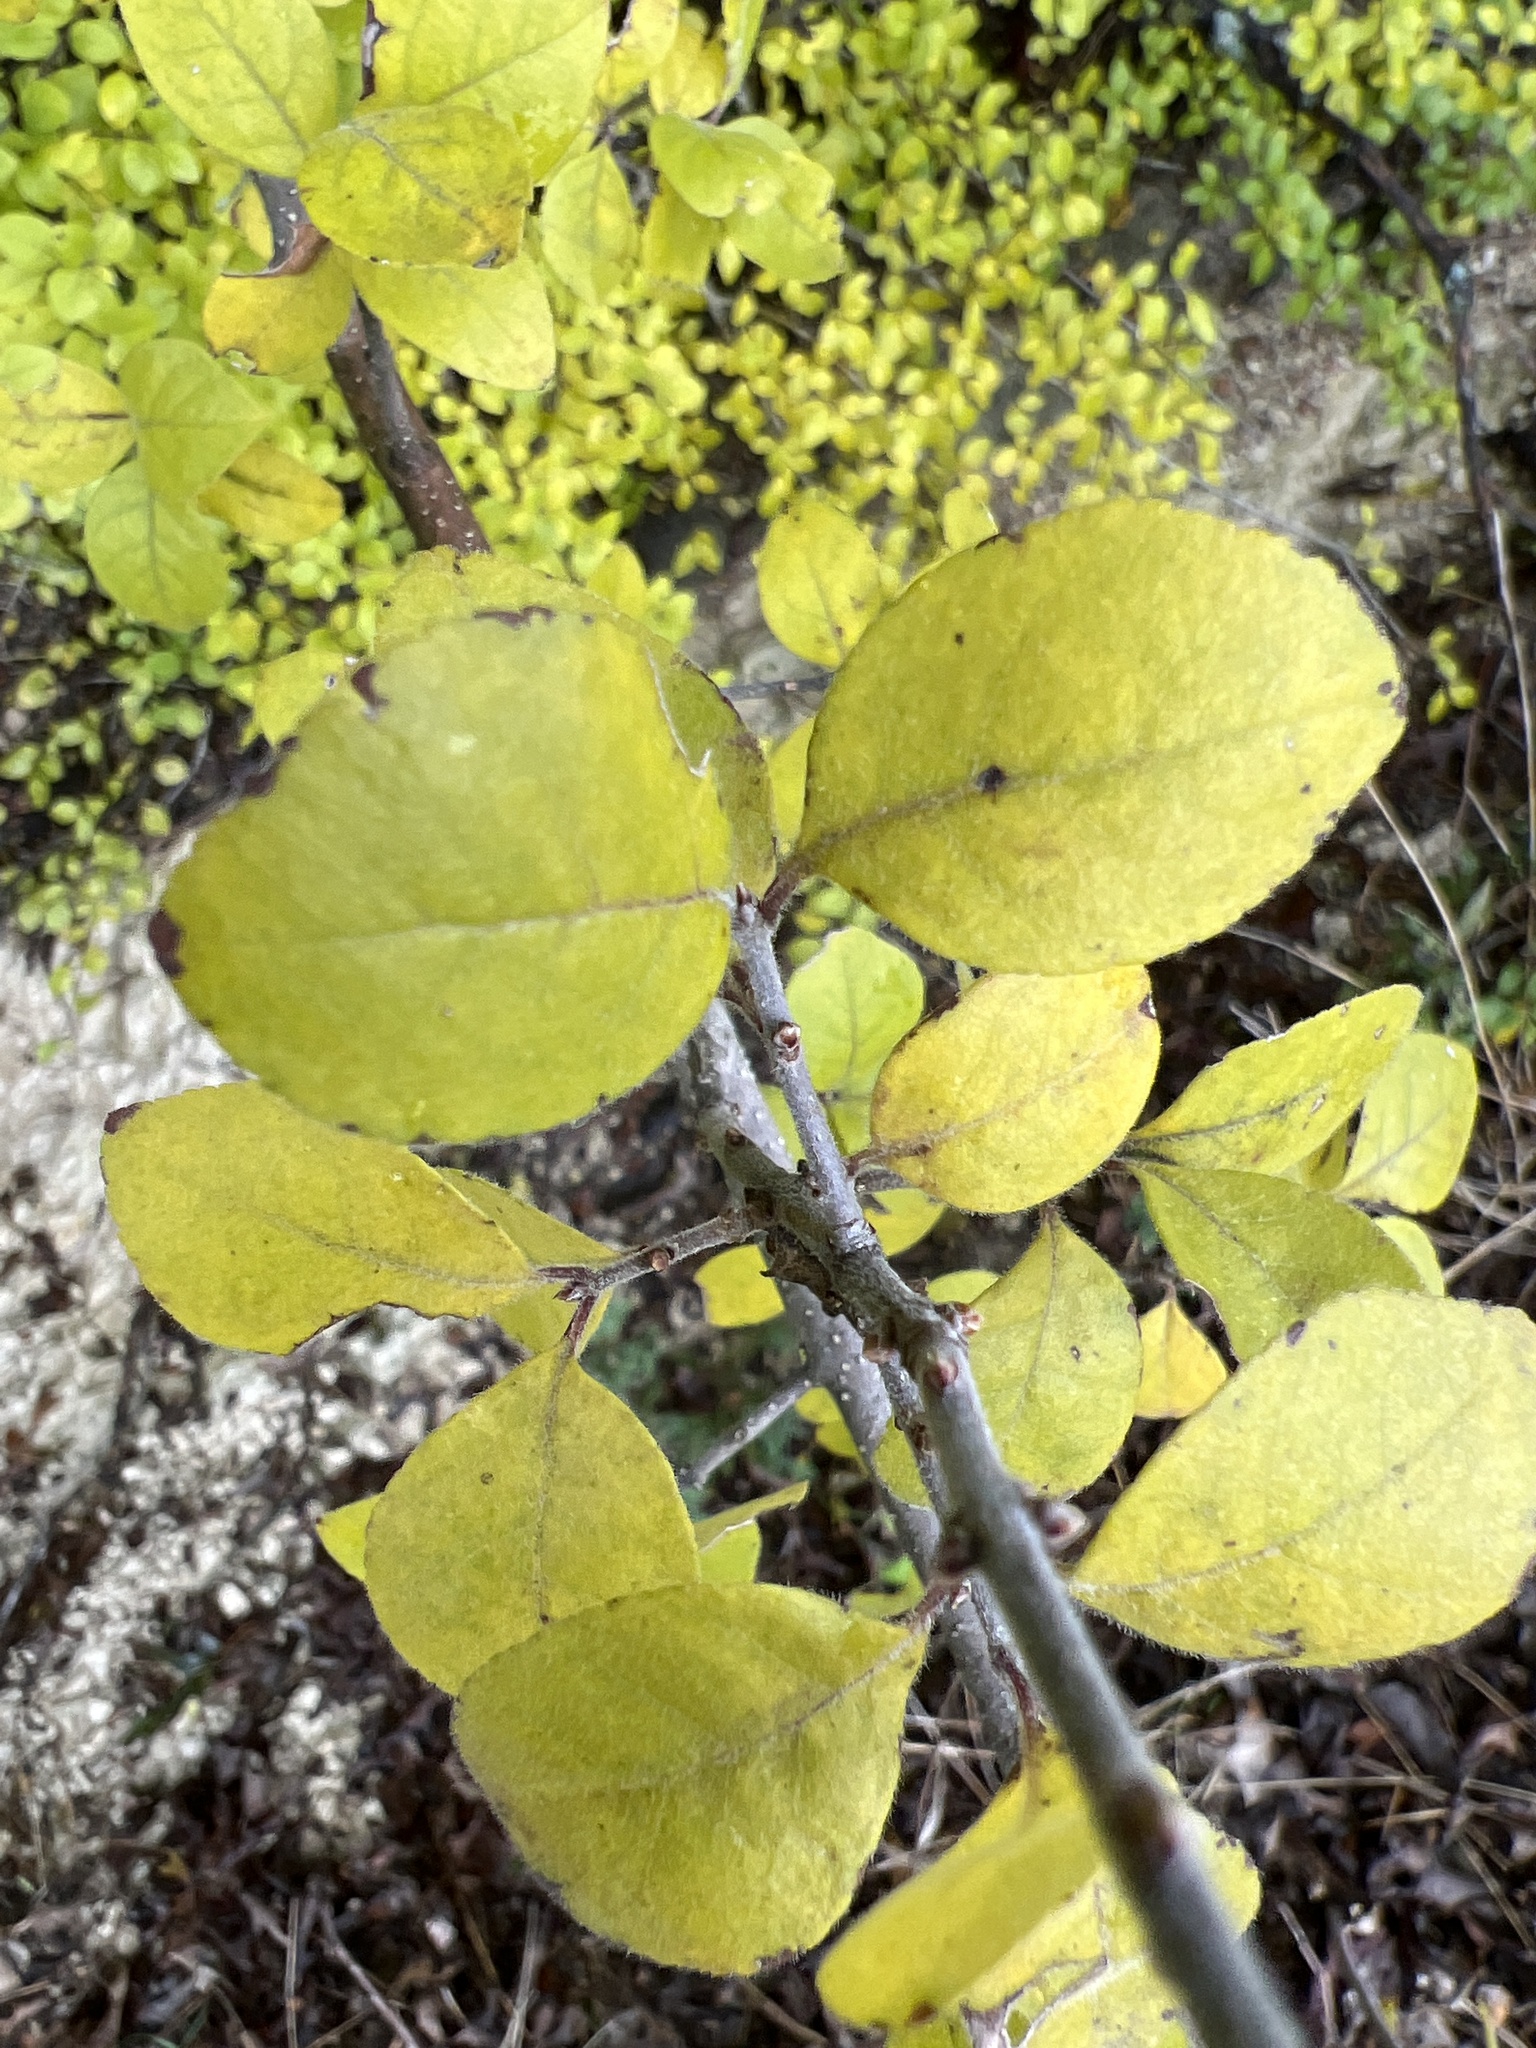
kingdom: Plantae
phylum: Tracheophyta
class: Magnoliopsida
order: Lamiales
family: Oleaceae
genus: Forestiera
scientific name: Forestiera pubescens
